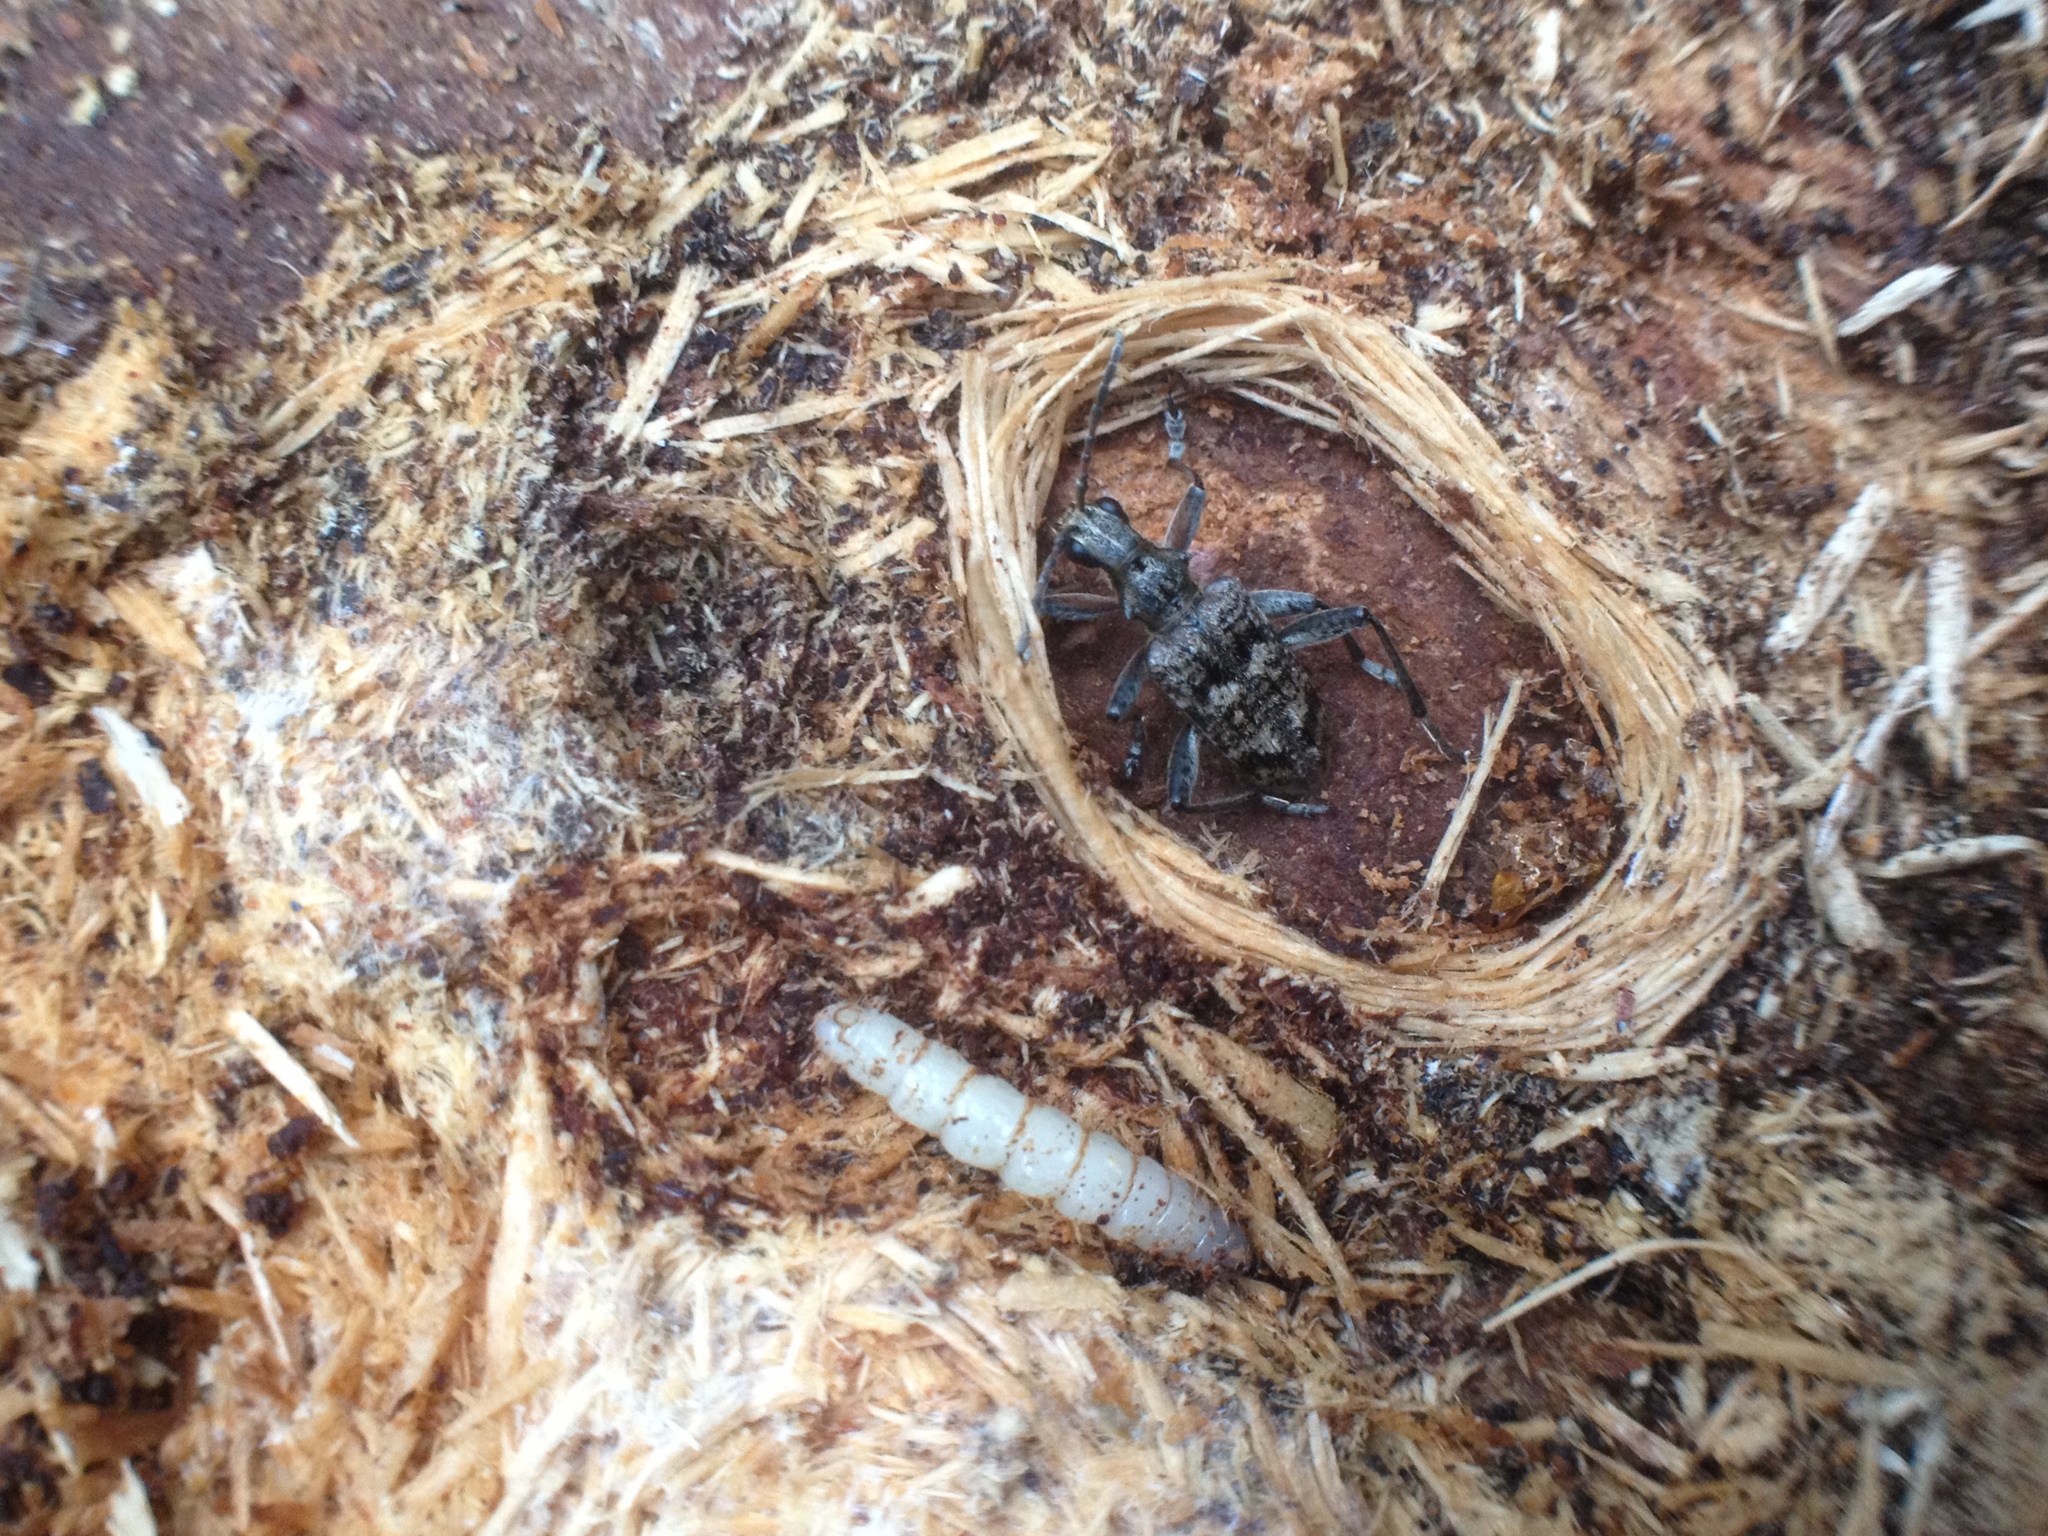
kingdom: Animalia
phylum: Arthropoda
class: Insecta
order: Coleoptera
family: Cerambycidae
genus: Rhagium
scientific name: Rhagium inquisitor
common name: Ribbed pine borer
